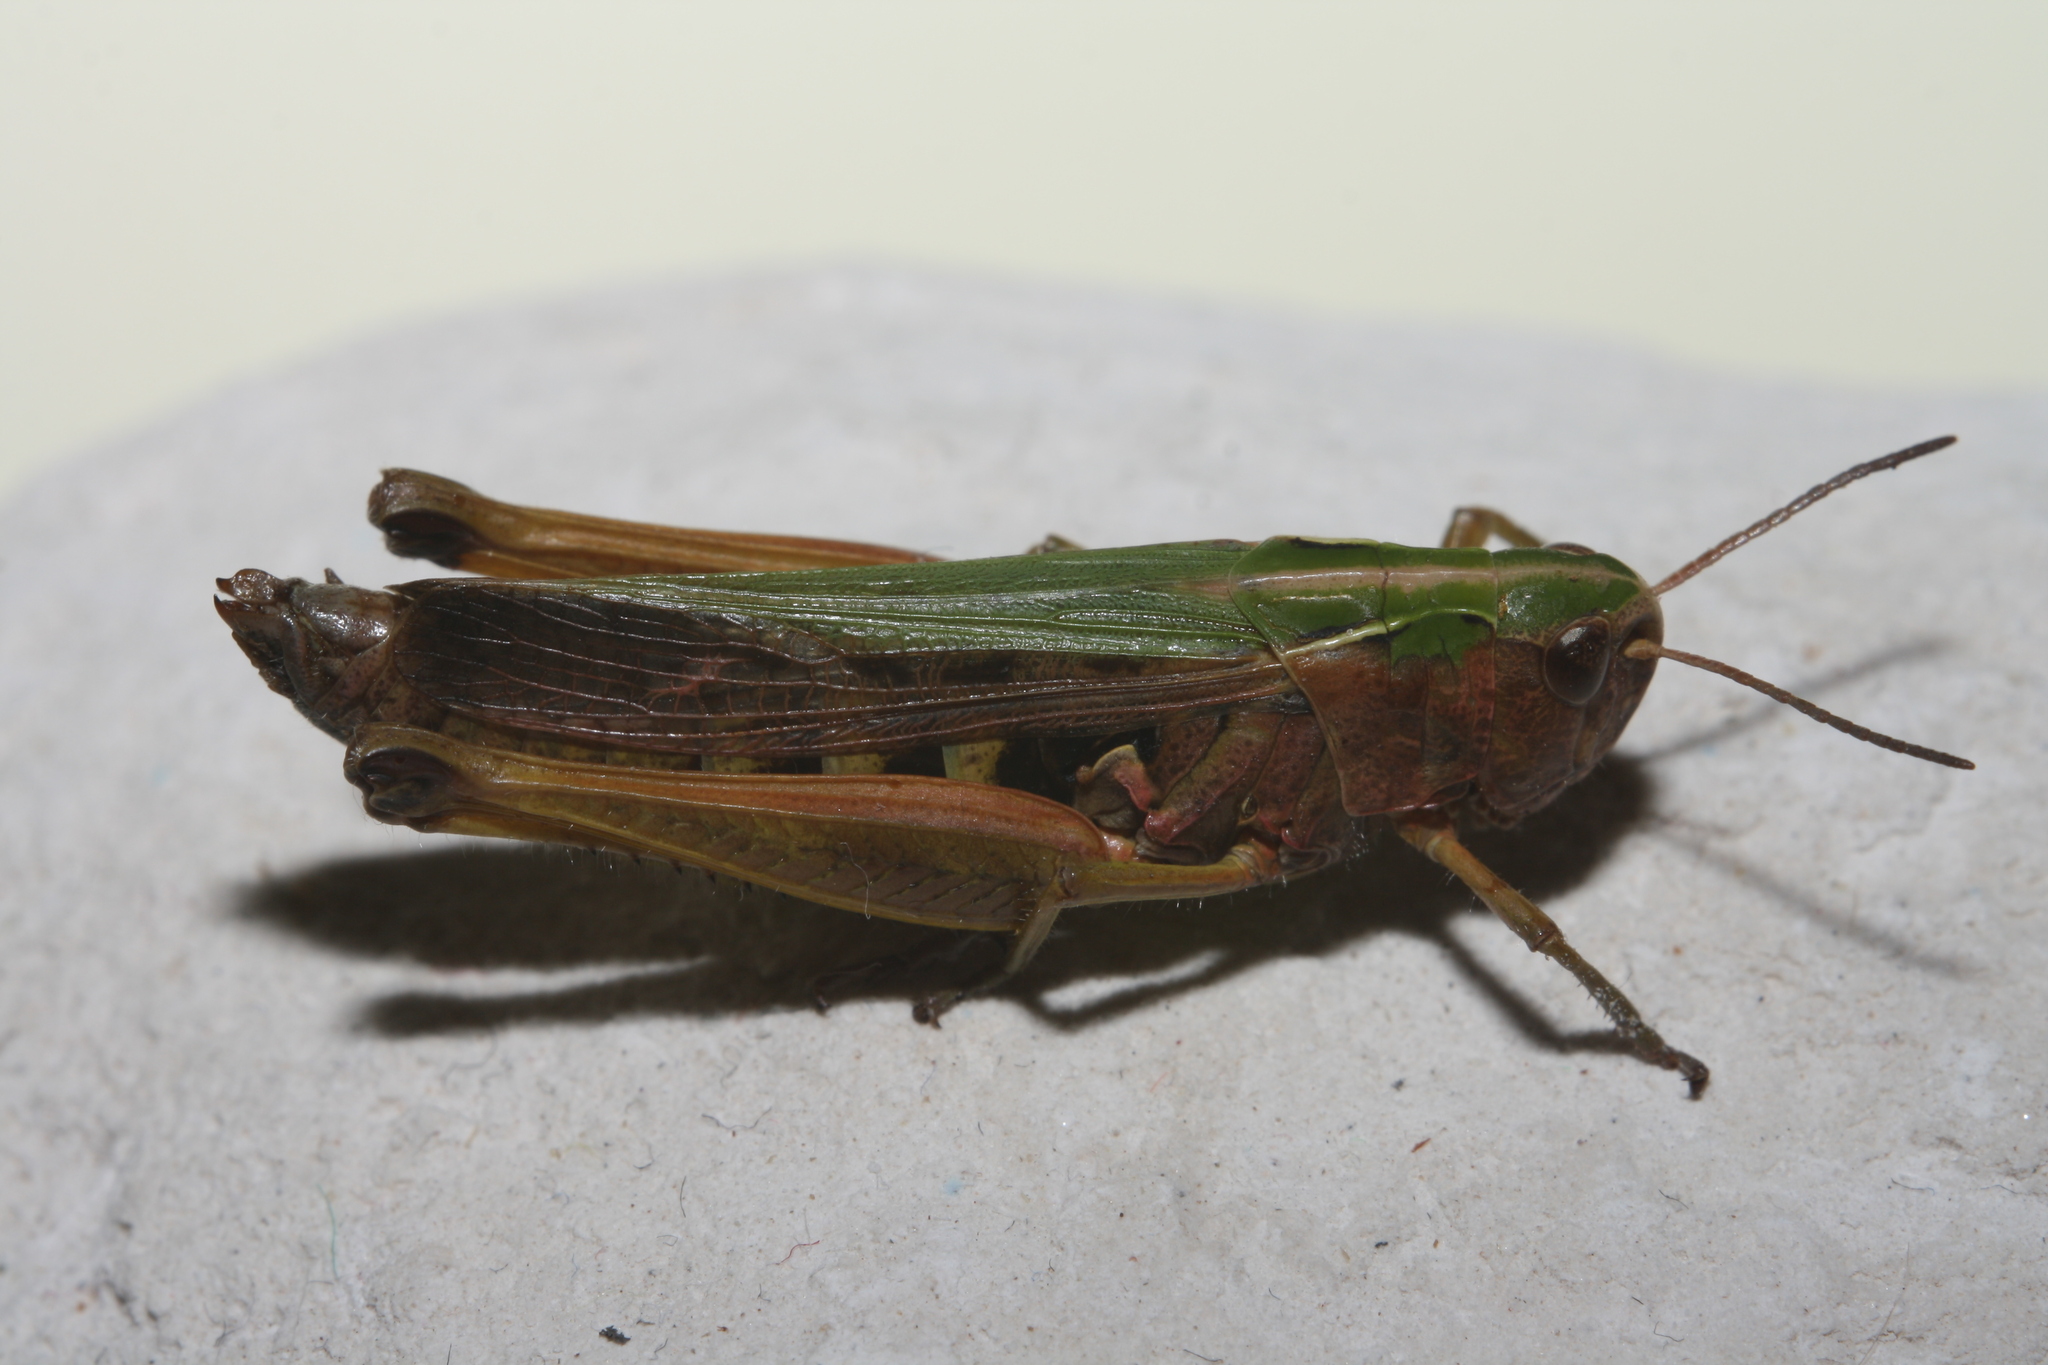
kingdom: Animalia
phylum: Arthropoda
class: Insecta
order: Orthoptera
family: Acrididae
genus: Omocestus
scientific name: Omocestus viridulus
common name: Common green grasshopper
